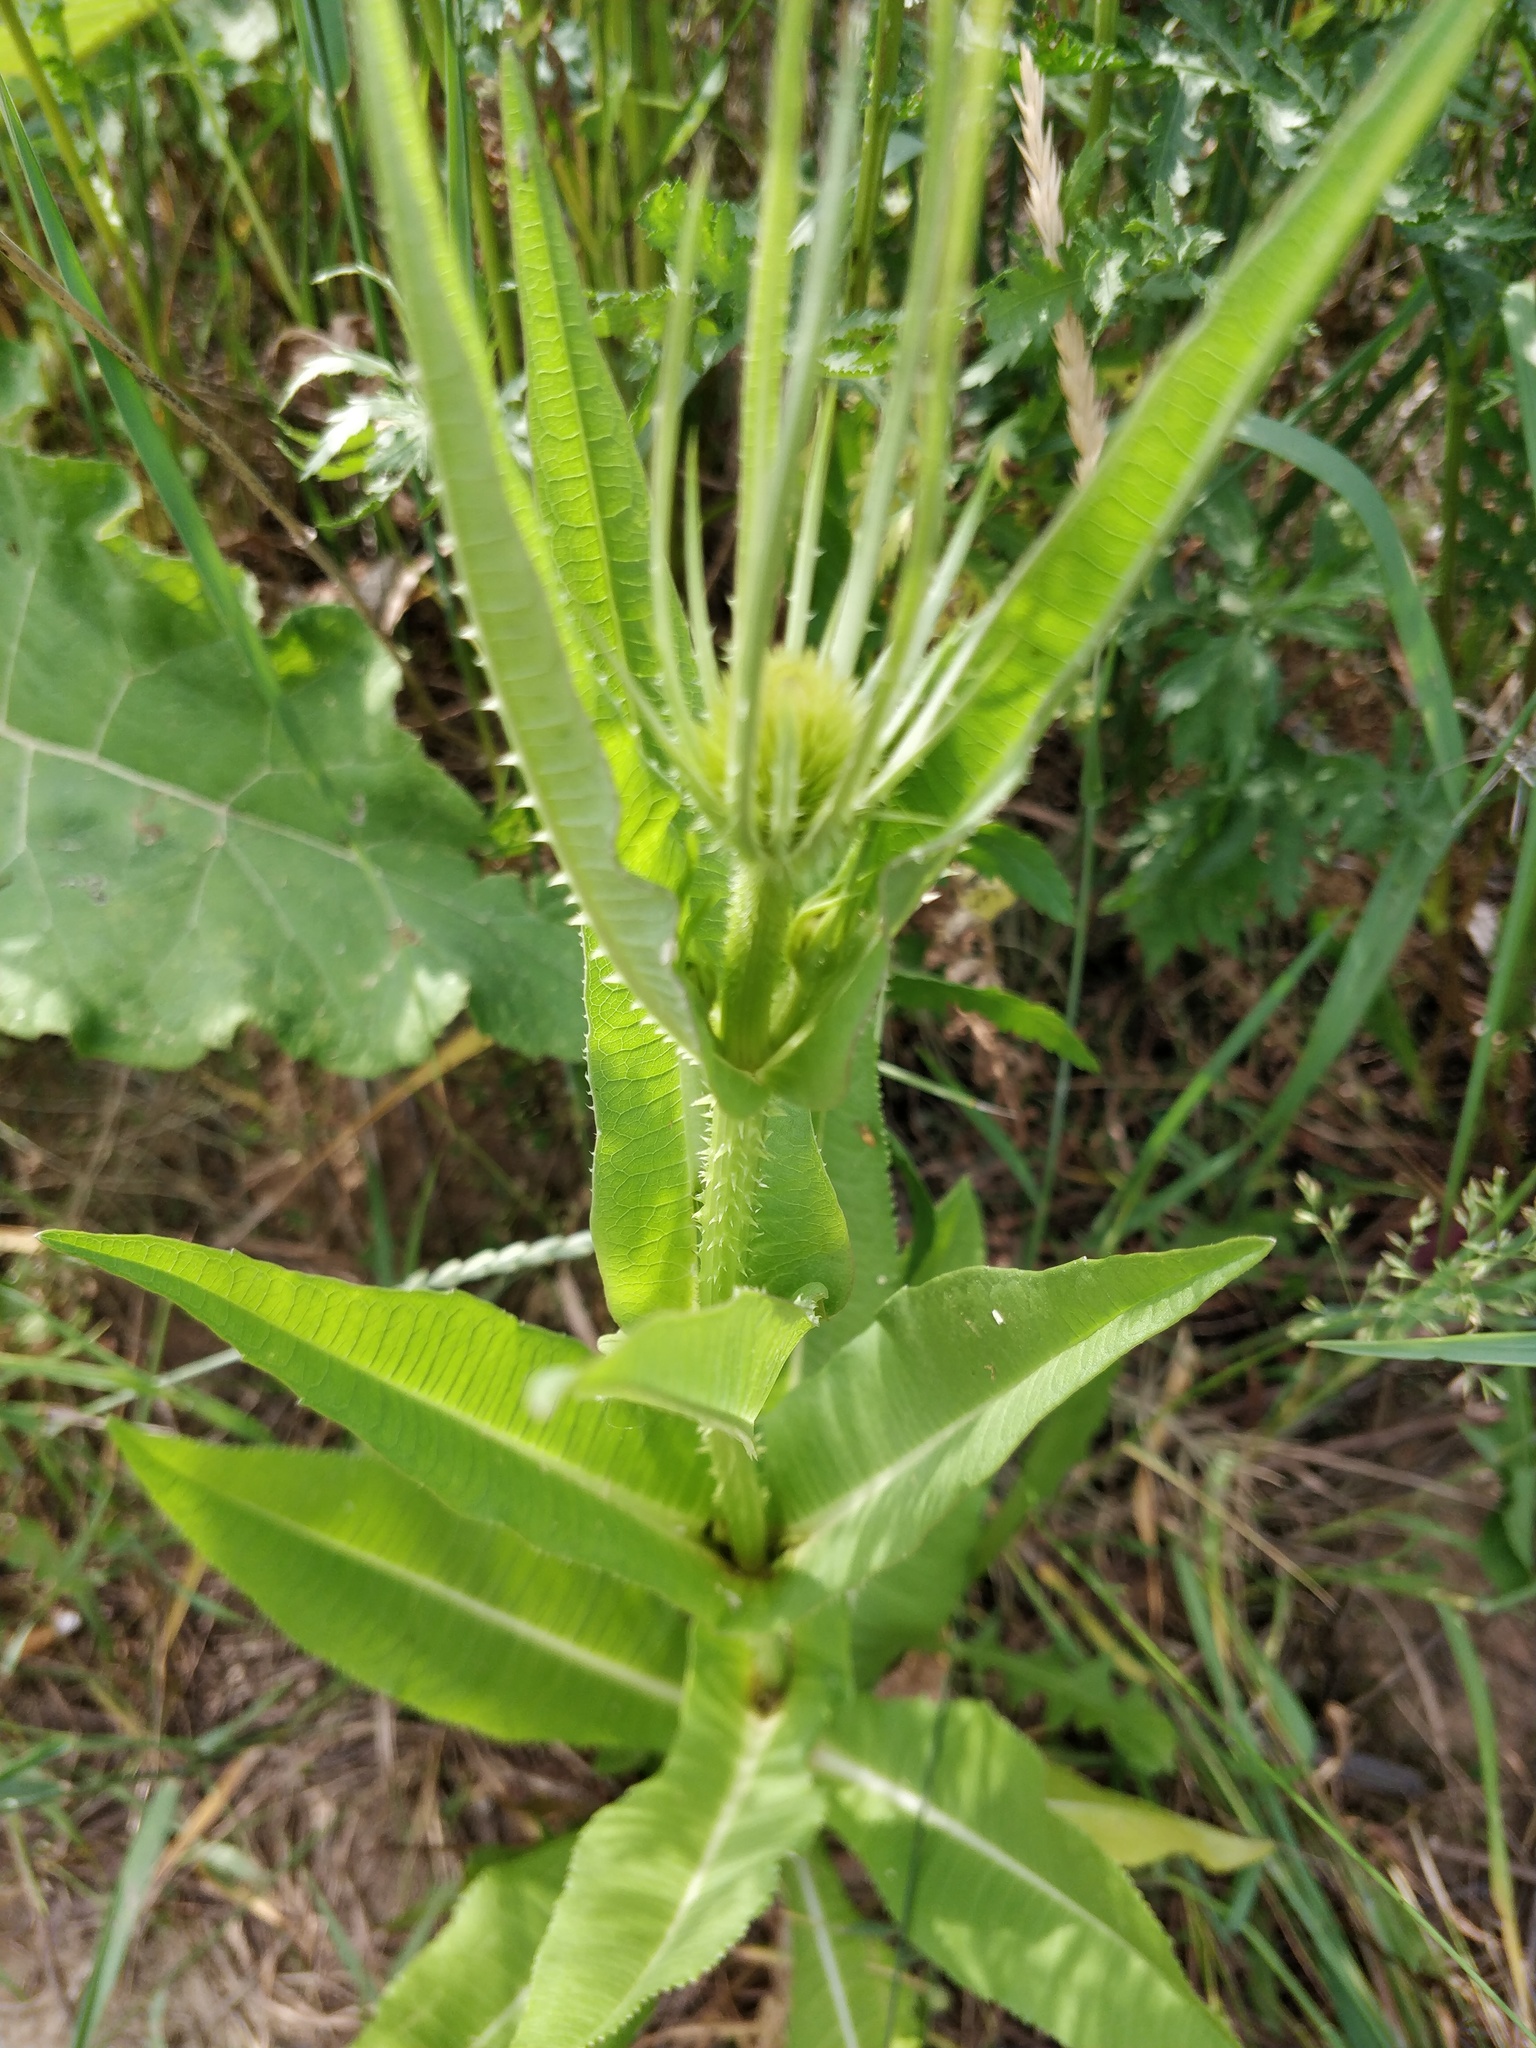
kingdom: Plantae
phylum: Tracheophyta
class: Magnoliopsida
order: Dipsacales
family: Caprifoliaceae
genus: Dipsacus
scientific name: Dipsacus fullonum
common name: Teasel
